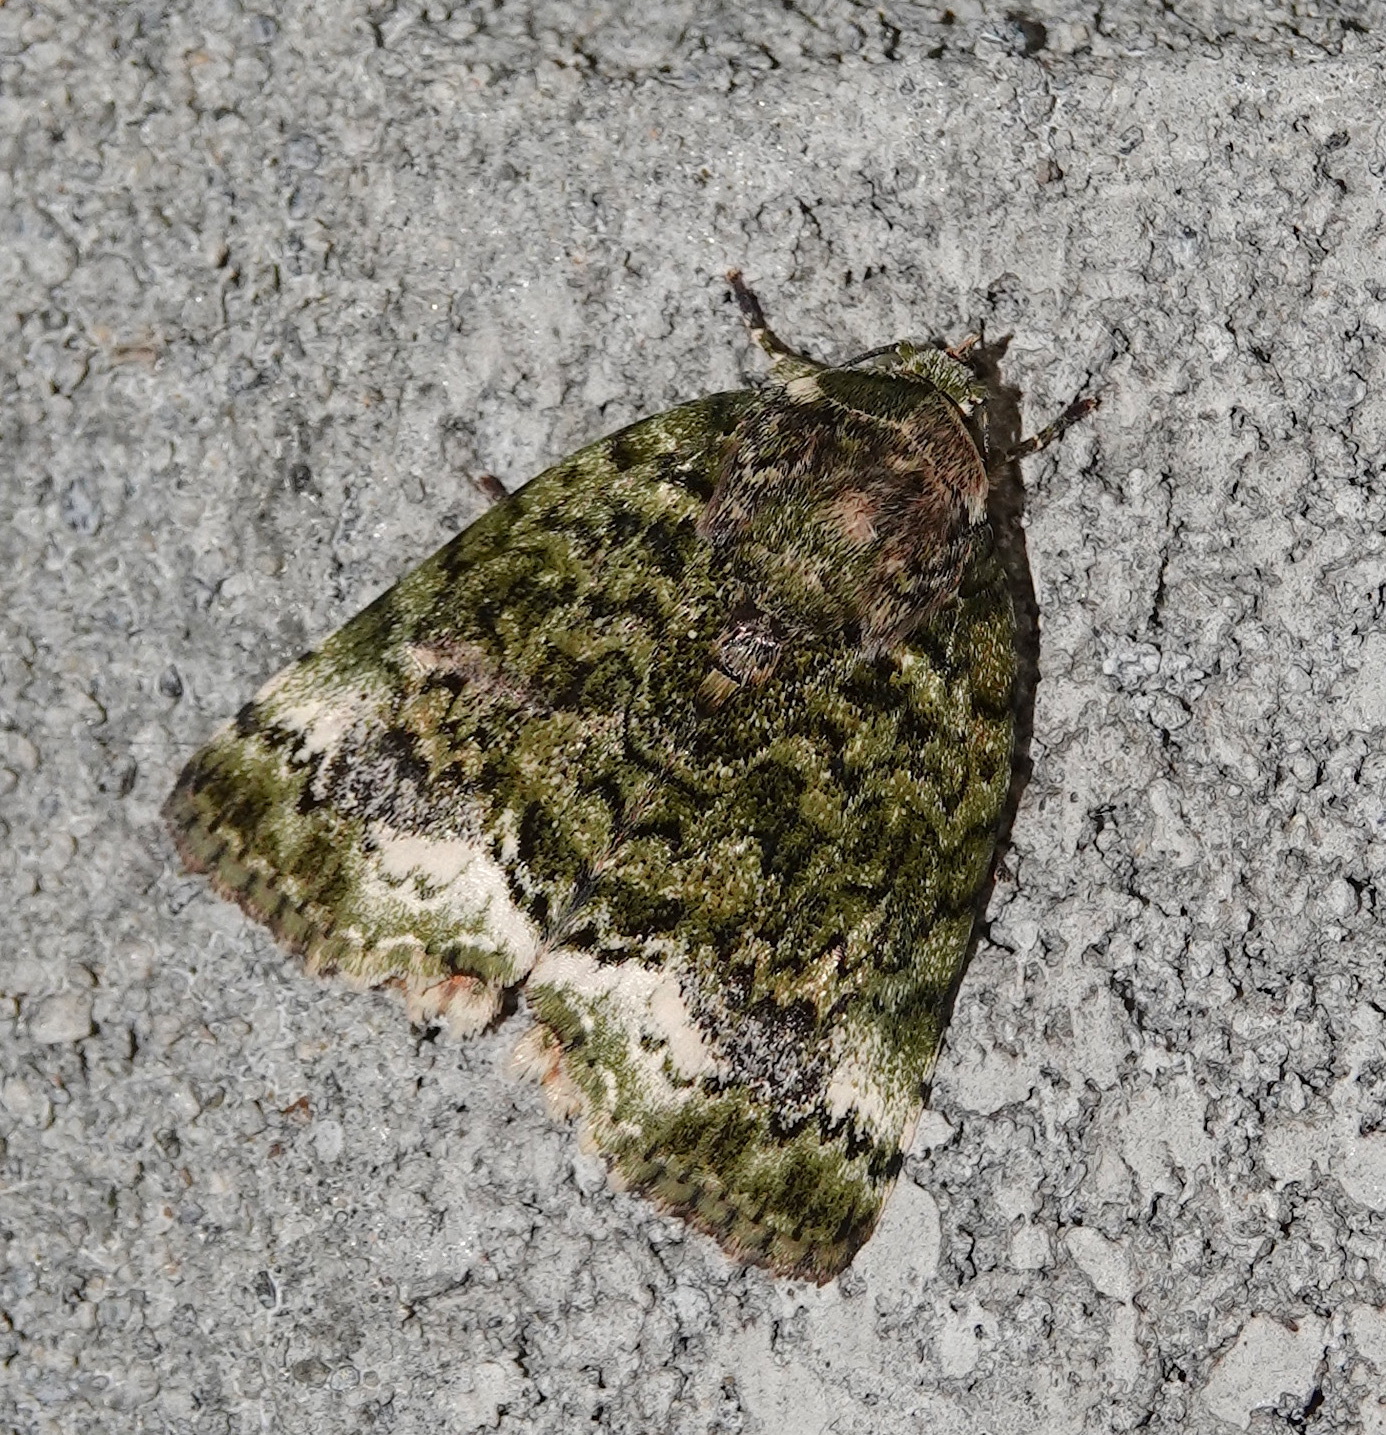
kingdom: Animalia
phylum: Arthropoda
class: Insecta
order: Lepidoptera
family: Nolidae
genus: Blenina
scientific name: Blenina chlorophila
